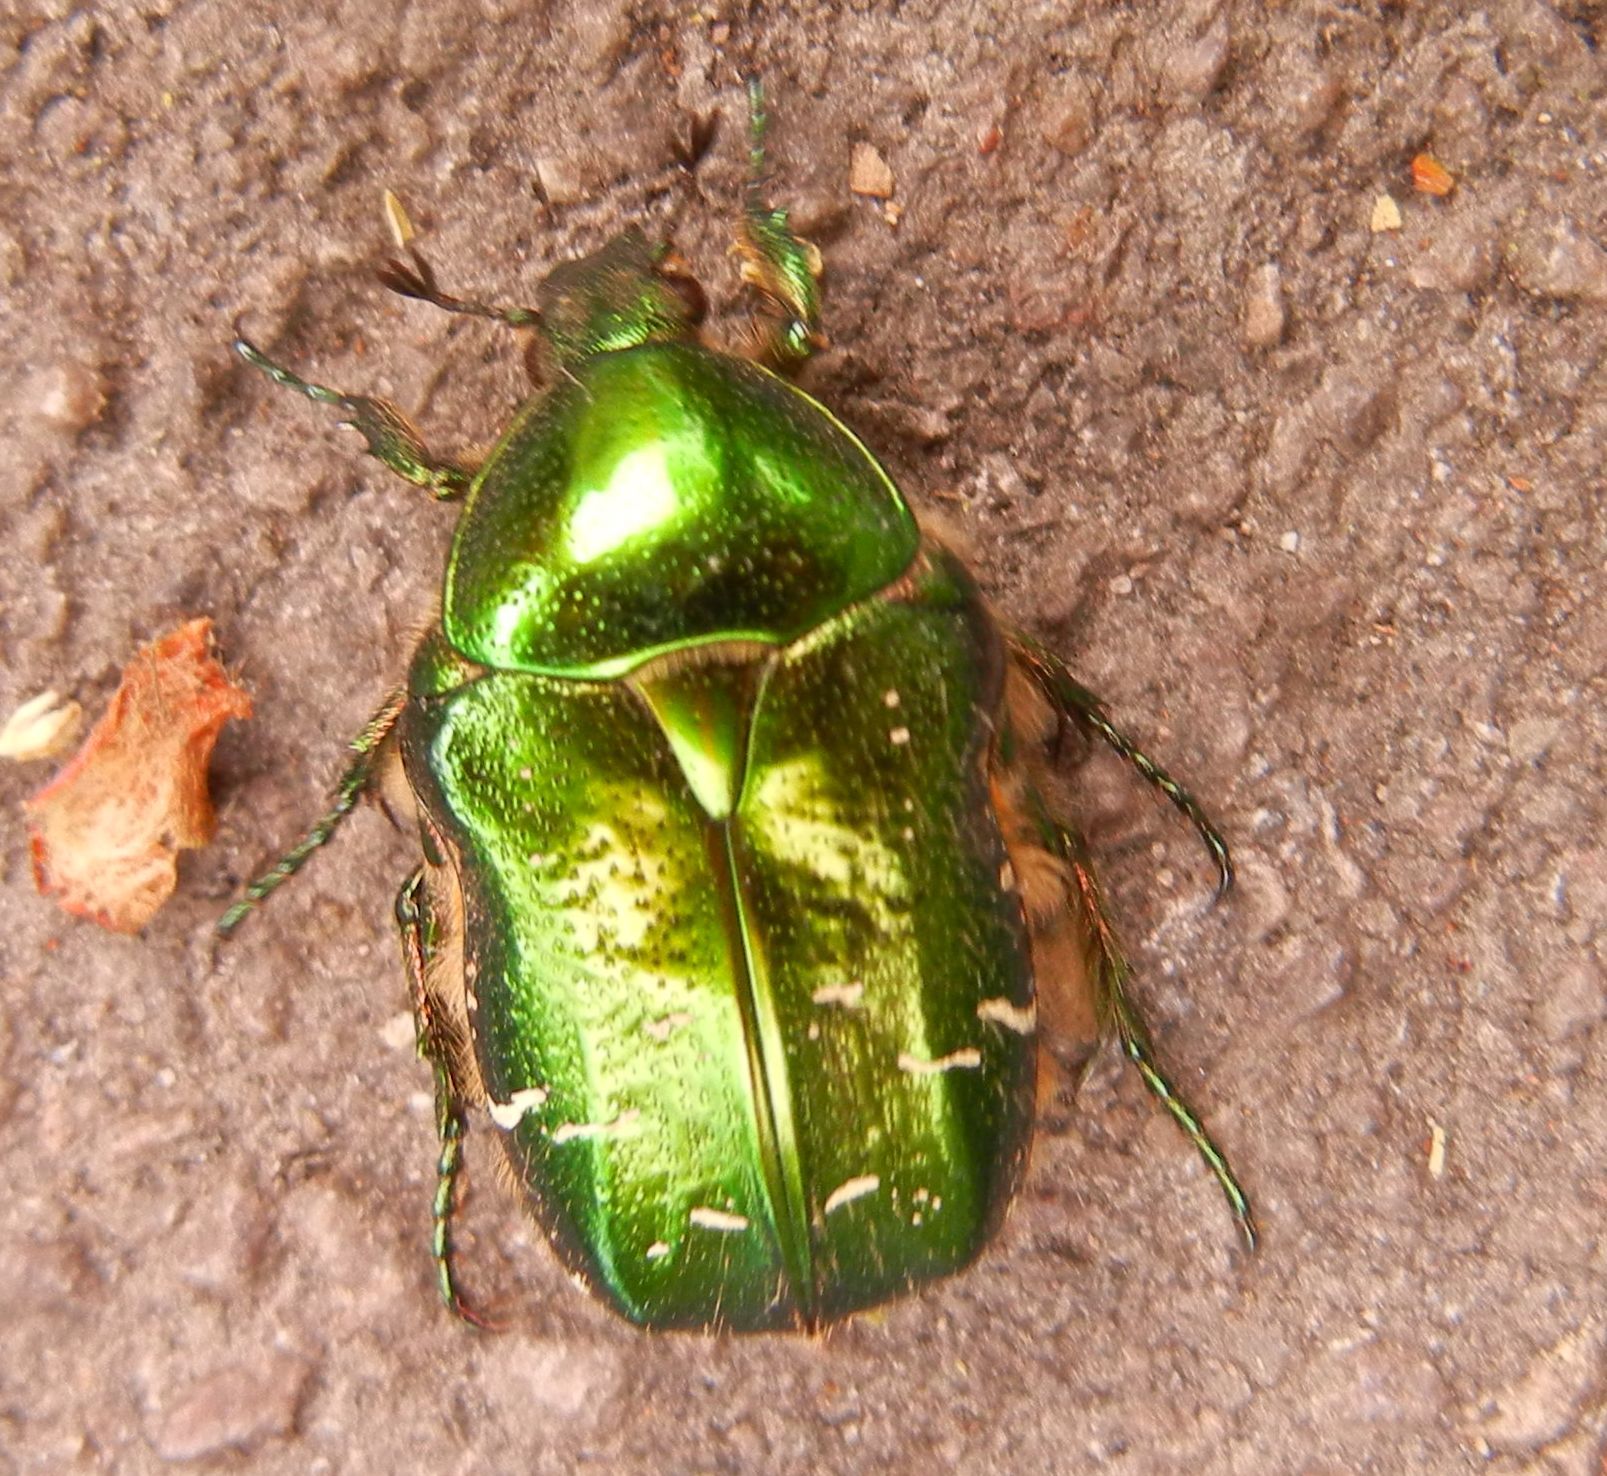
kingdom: Animalia
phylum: Arthropoda
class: Insecta
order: Coleoptera
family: Scarabaeidae
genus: Cetonia
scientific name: Cetonia aurata
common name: Rose chafer
